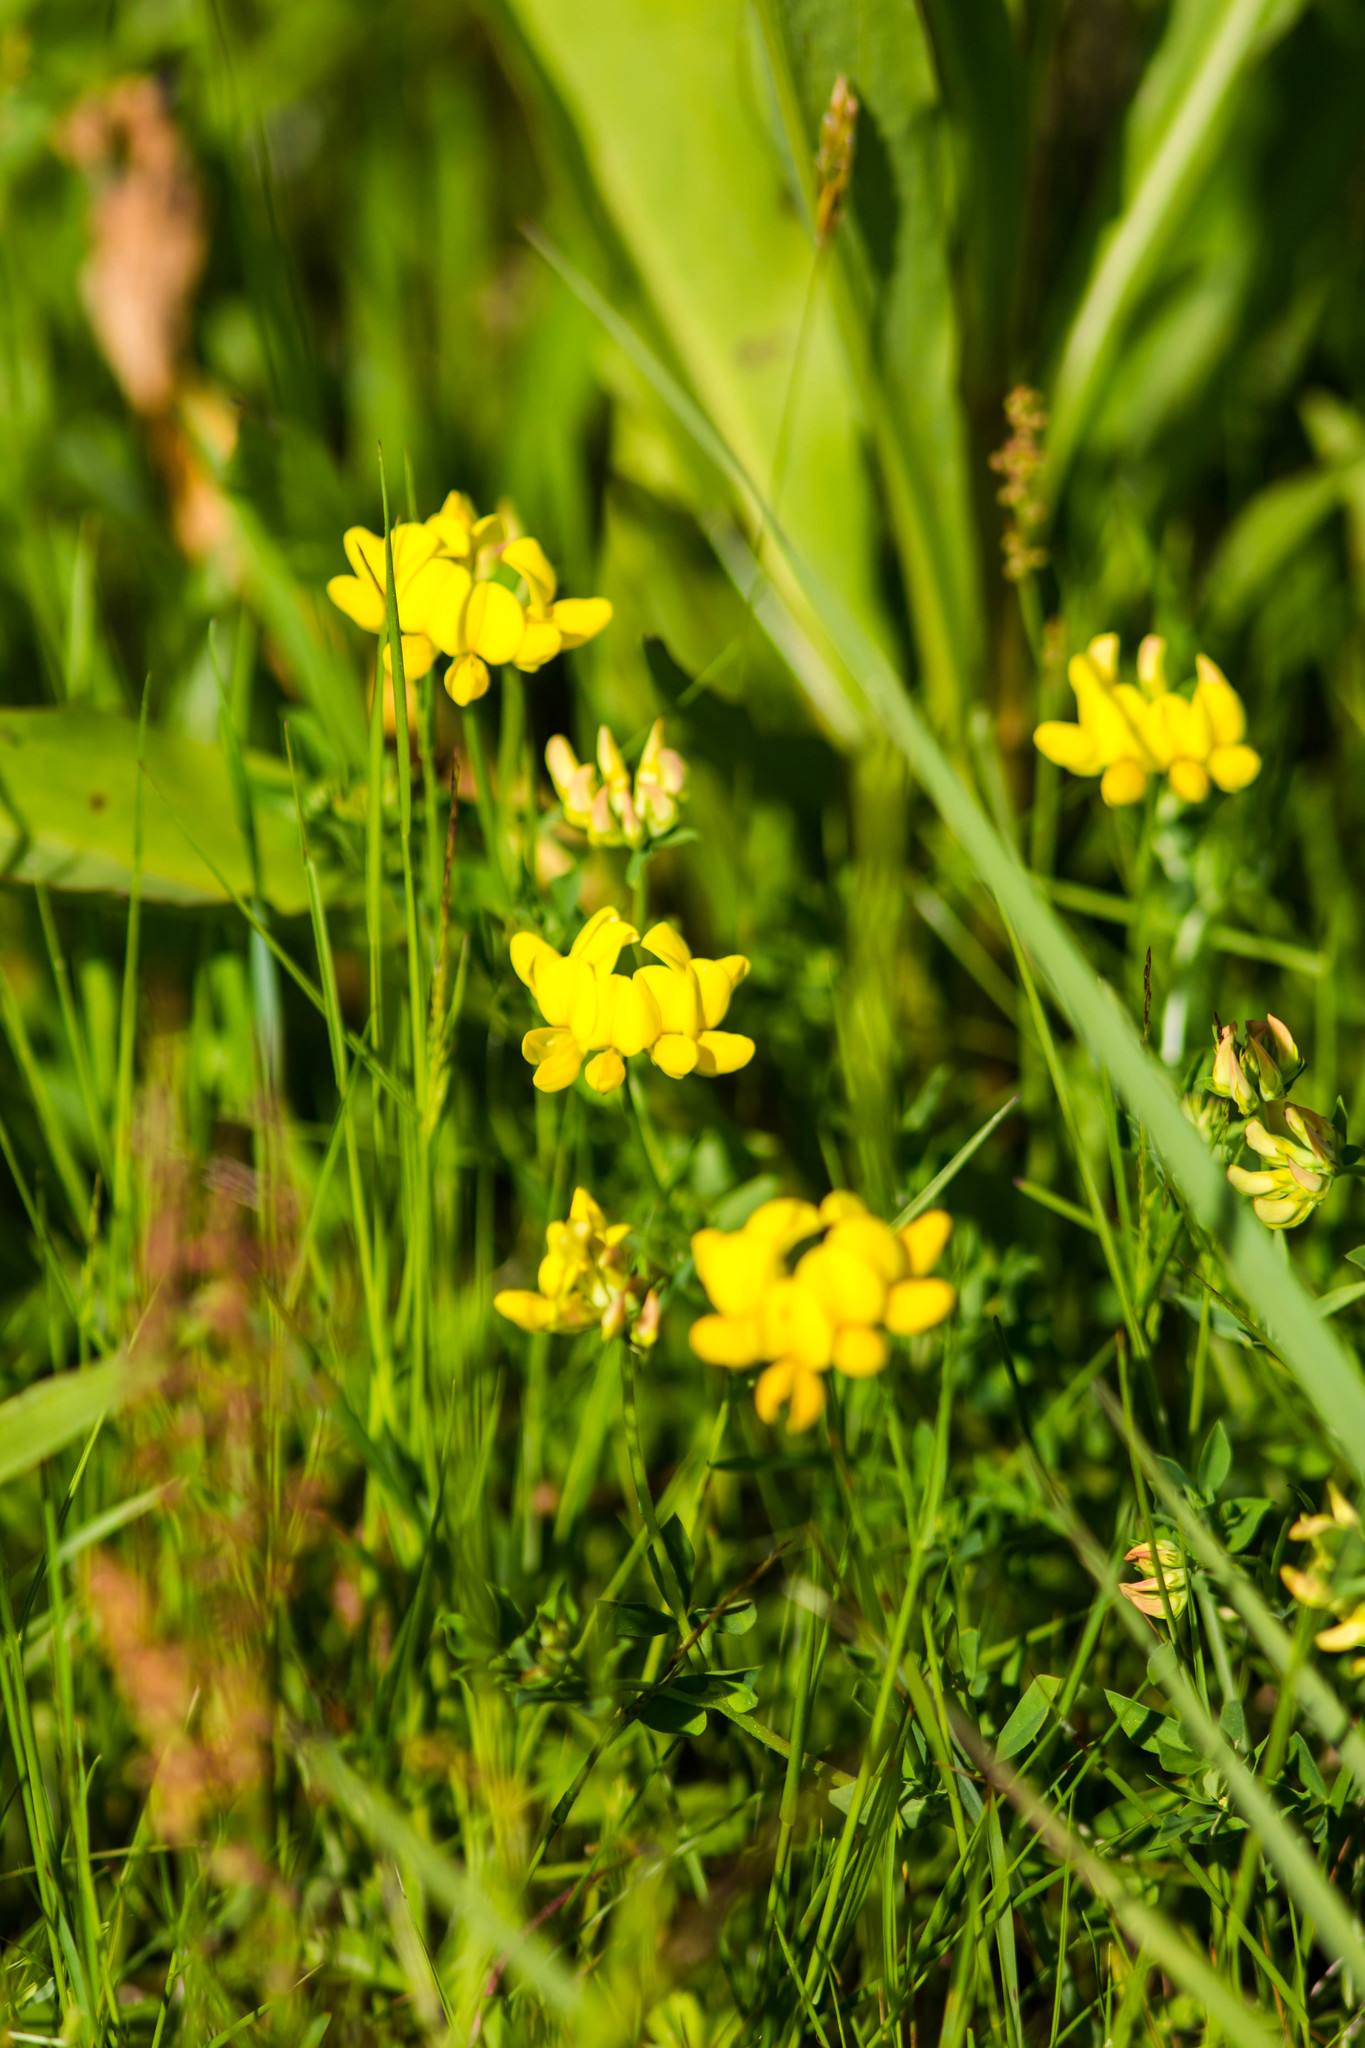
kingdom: Plantae
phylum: Tracheophyta
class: Magnoliopsida
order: Fabales
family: Fabaceae
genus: Lotus
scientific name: Lotus corniculatus
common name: Common bird's-foot-trefoil
